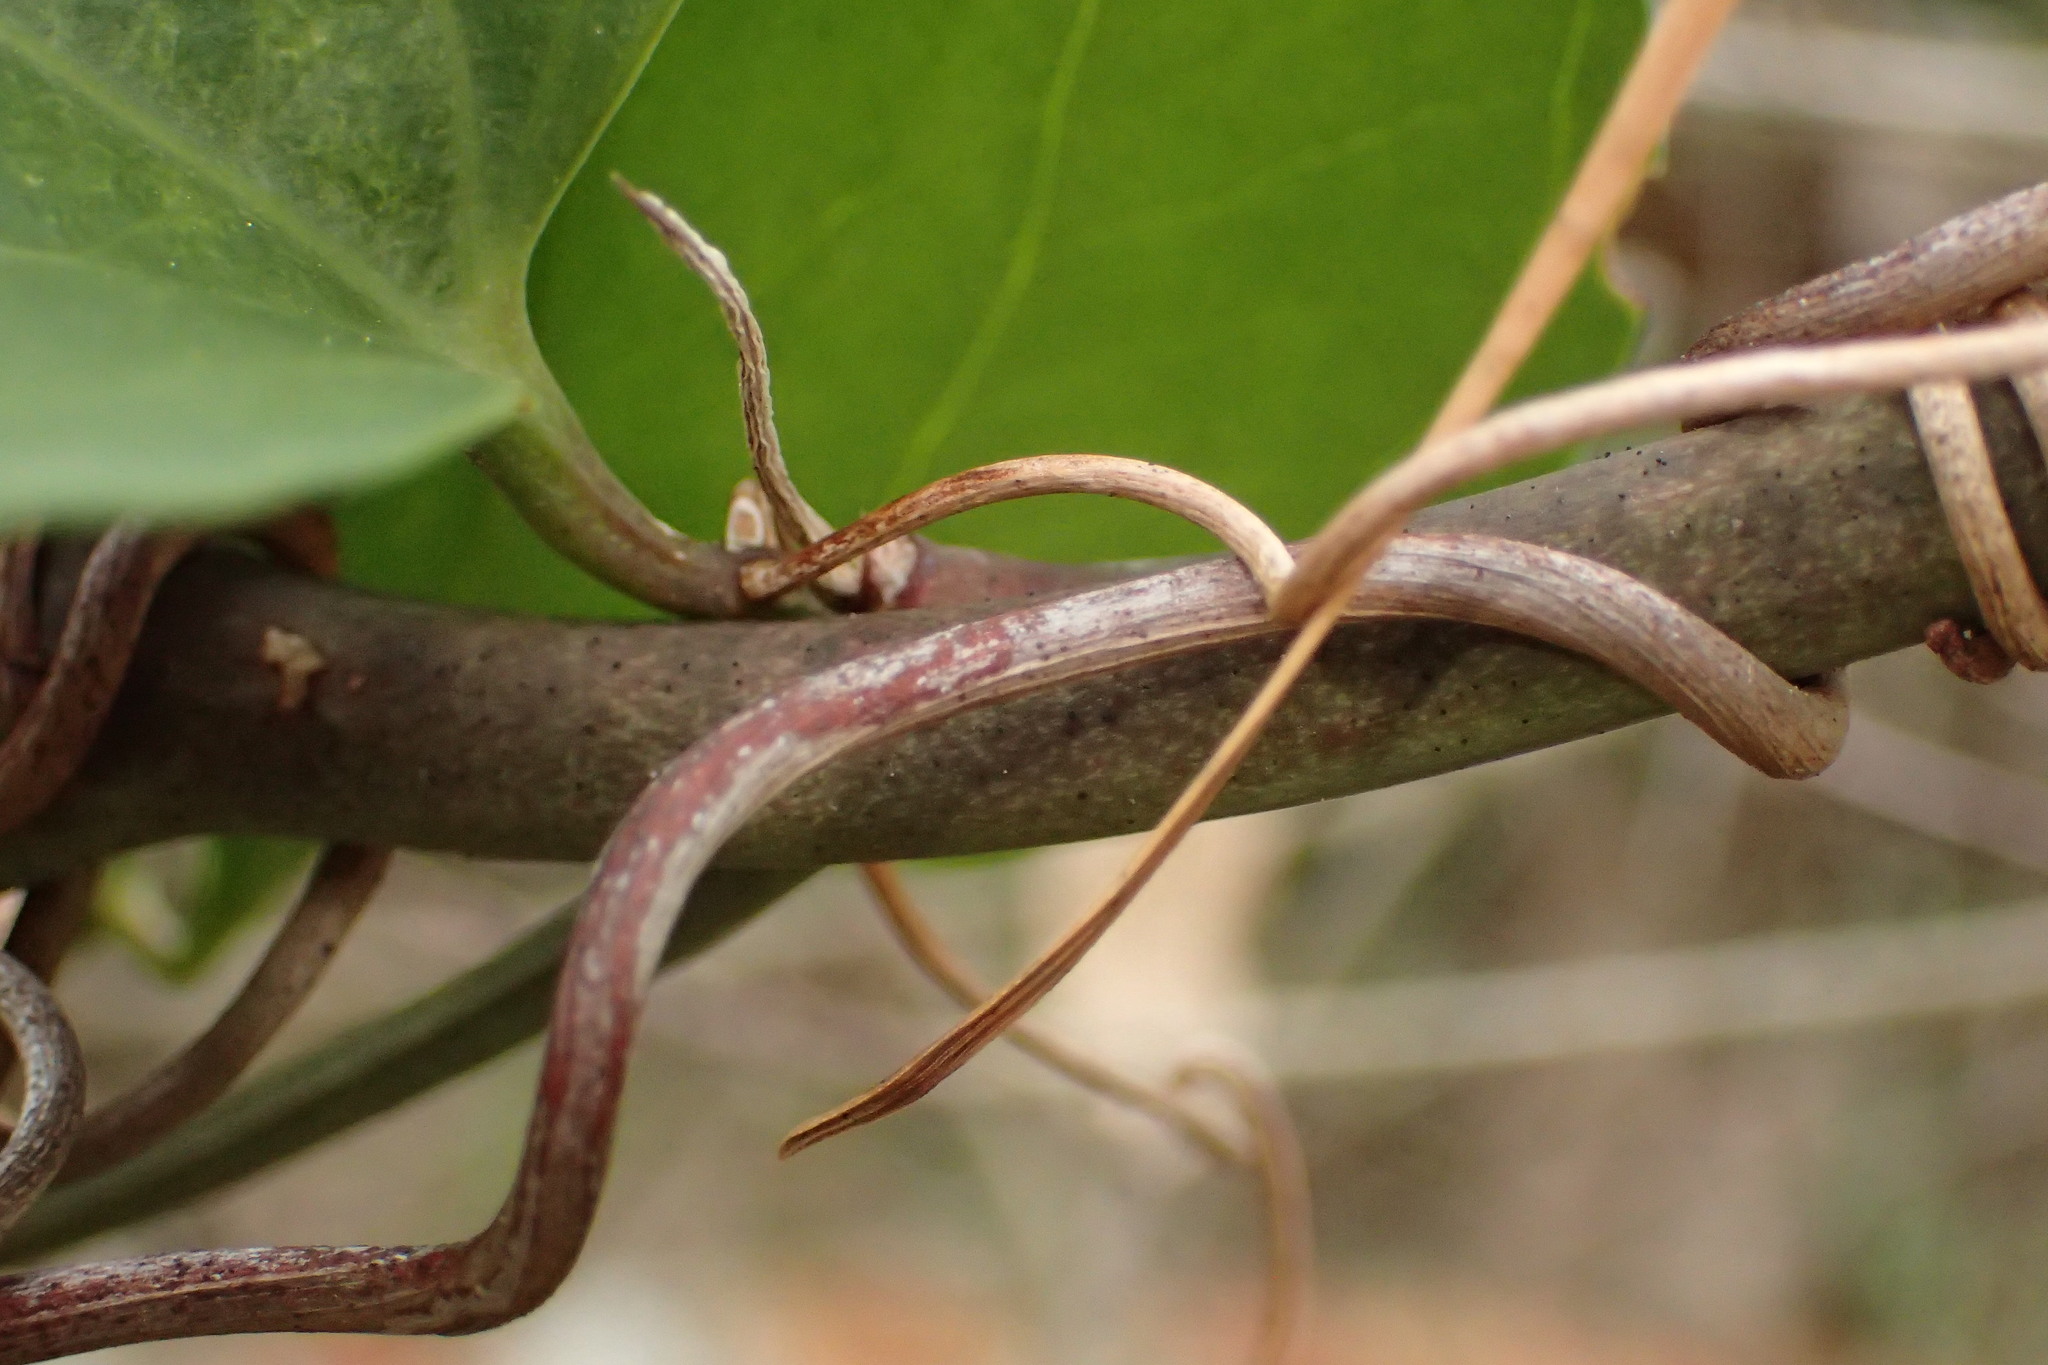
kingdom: Plantae
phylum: Tracheophyta
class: Liliopsida
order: Liliales
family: Smilacaceae
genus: Smilax
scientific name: Smilax auriculata
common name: Wild bamboo
